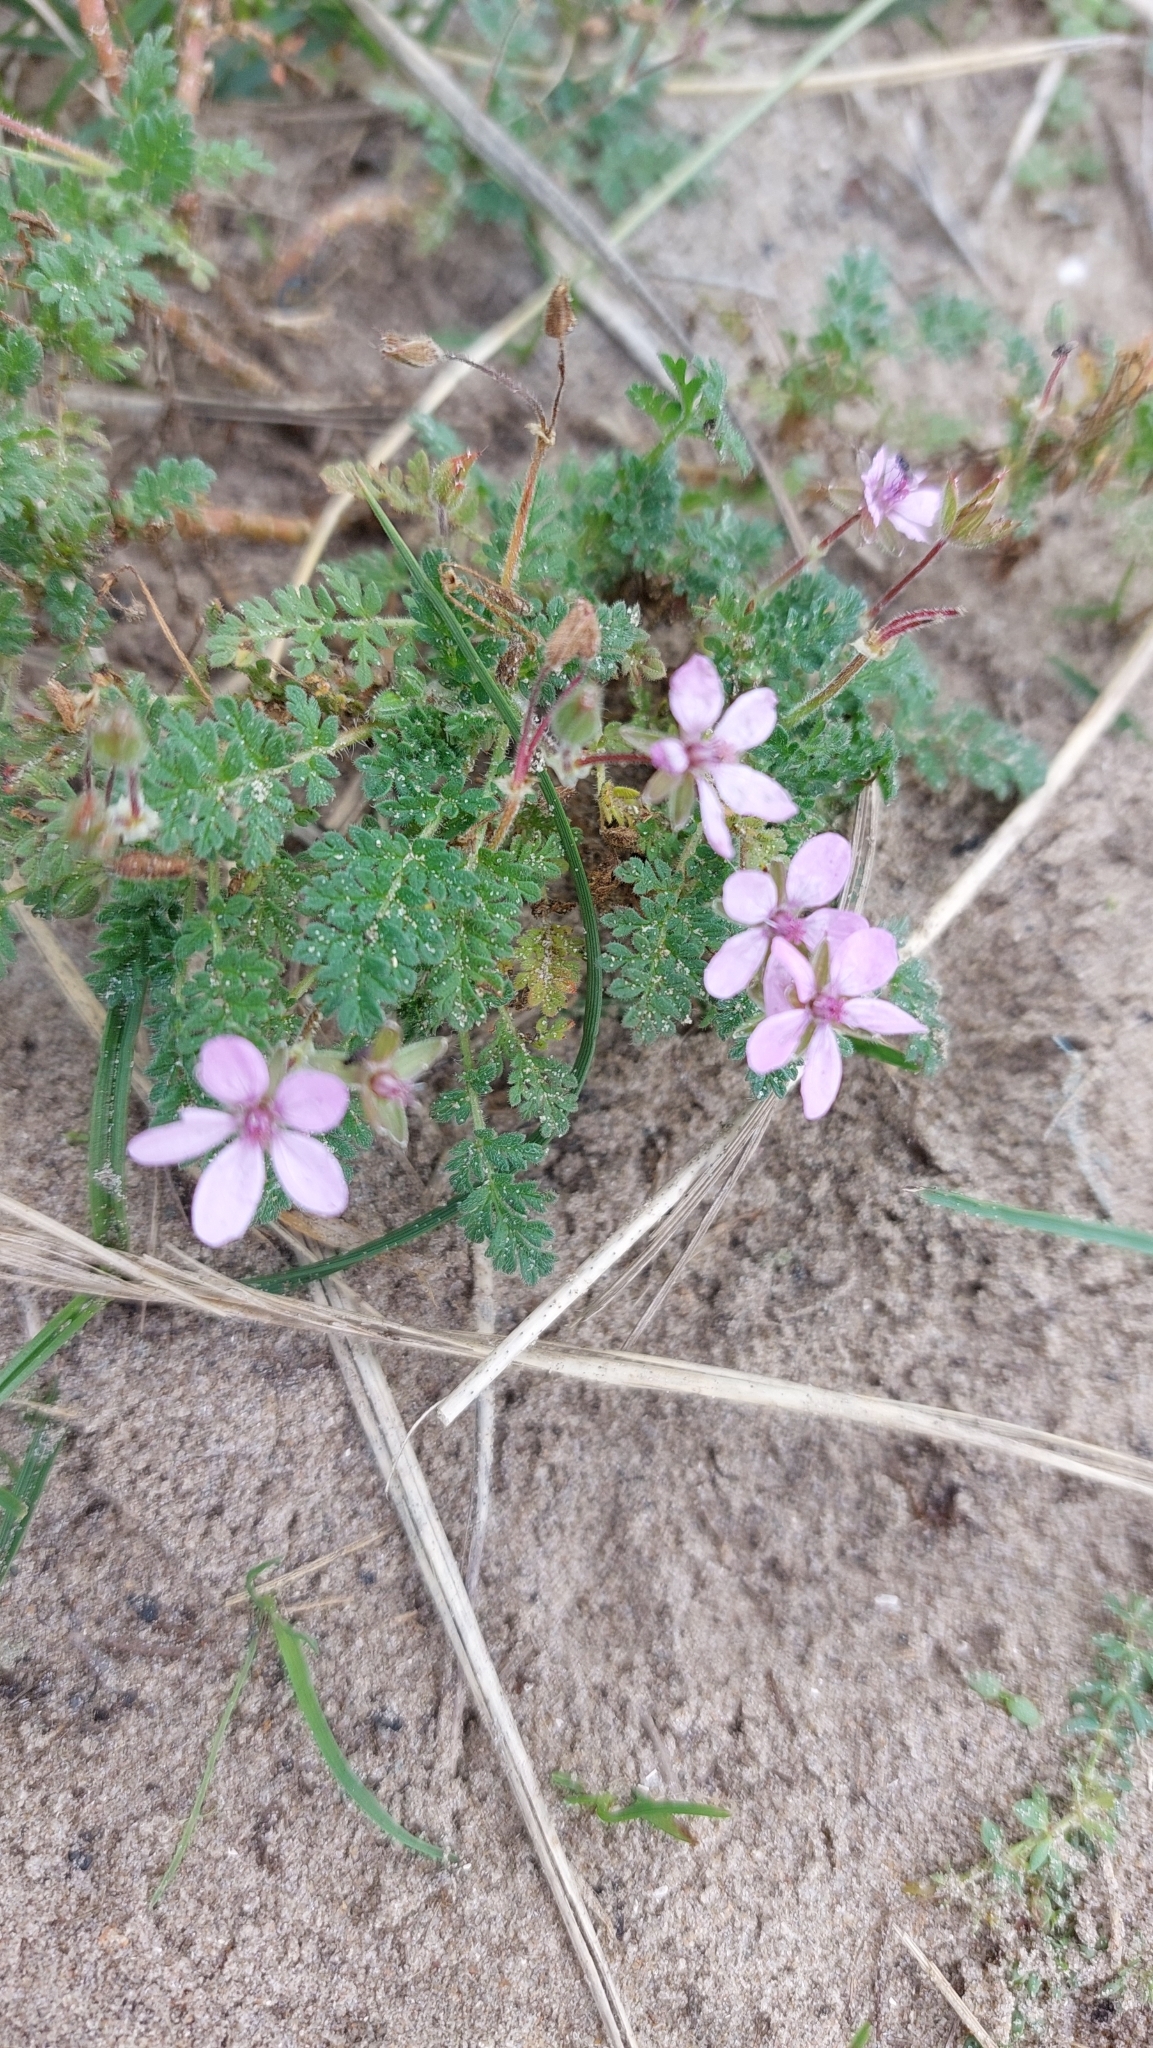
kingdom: Plantae
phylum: Tracheophyta
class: Magnoliopsida
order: Geraniales
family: Geraniaceae
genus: Erodium
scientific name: Erodium cicutarium
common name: Common stork's-bill
